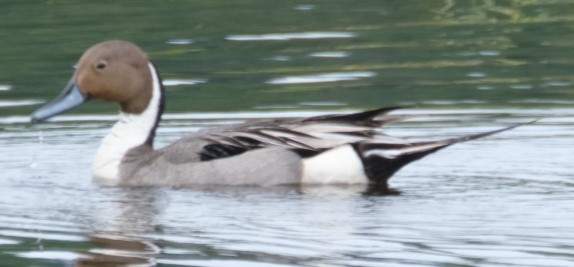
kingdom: Animalia
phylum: Chordata
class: Aves
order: Anseriformes
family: Anatidae
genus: Anas
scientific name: Anas acuta
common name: Northern pintail
